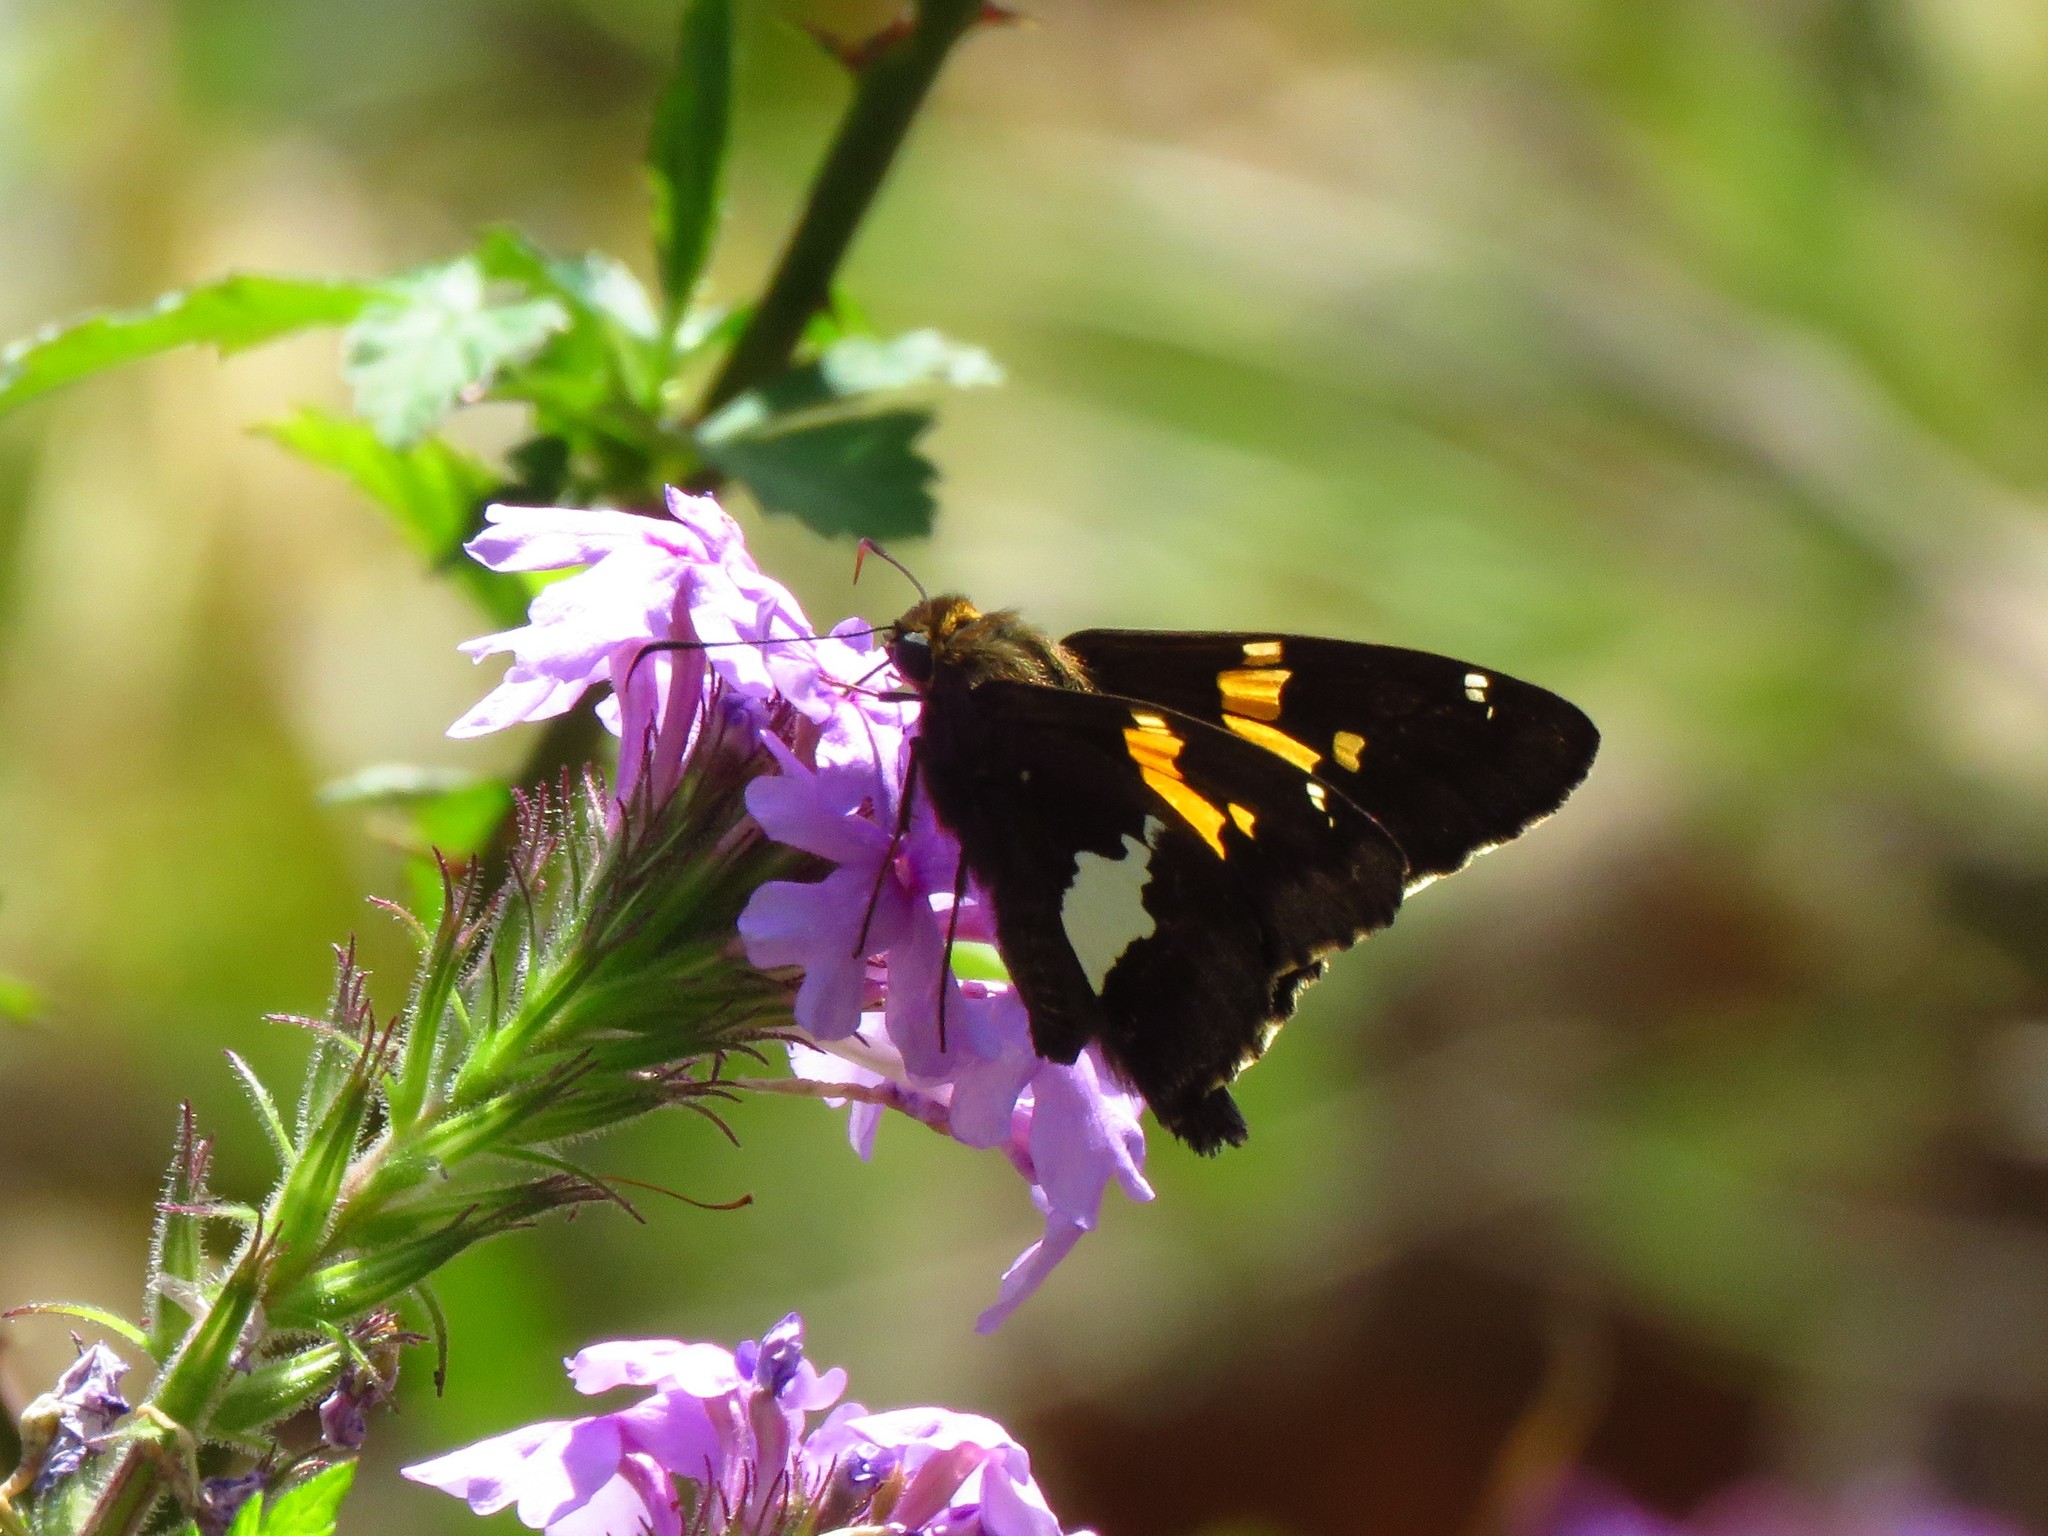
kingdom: Animalia
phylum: Arthropoda
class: Insecta
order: Lepidoptera
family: Hesperiidae
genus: Epargyreus
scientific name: Epargyreus clarus
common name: Silver-spotted skipper
